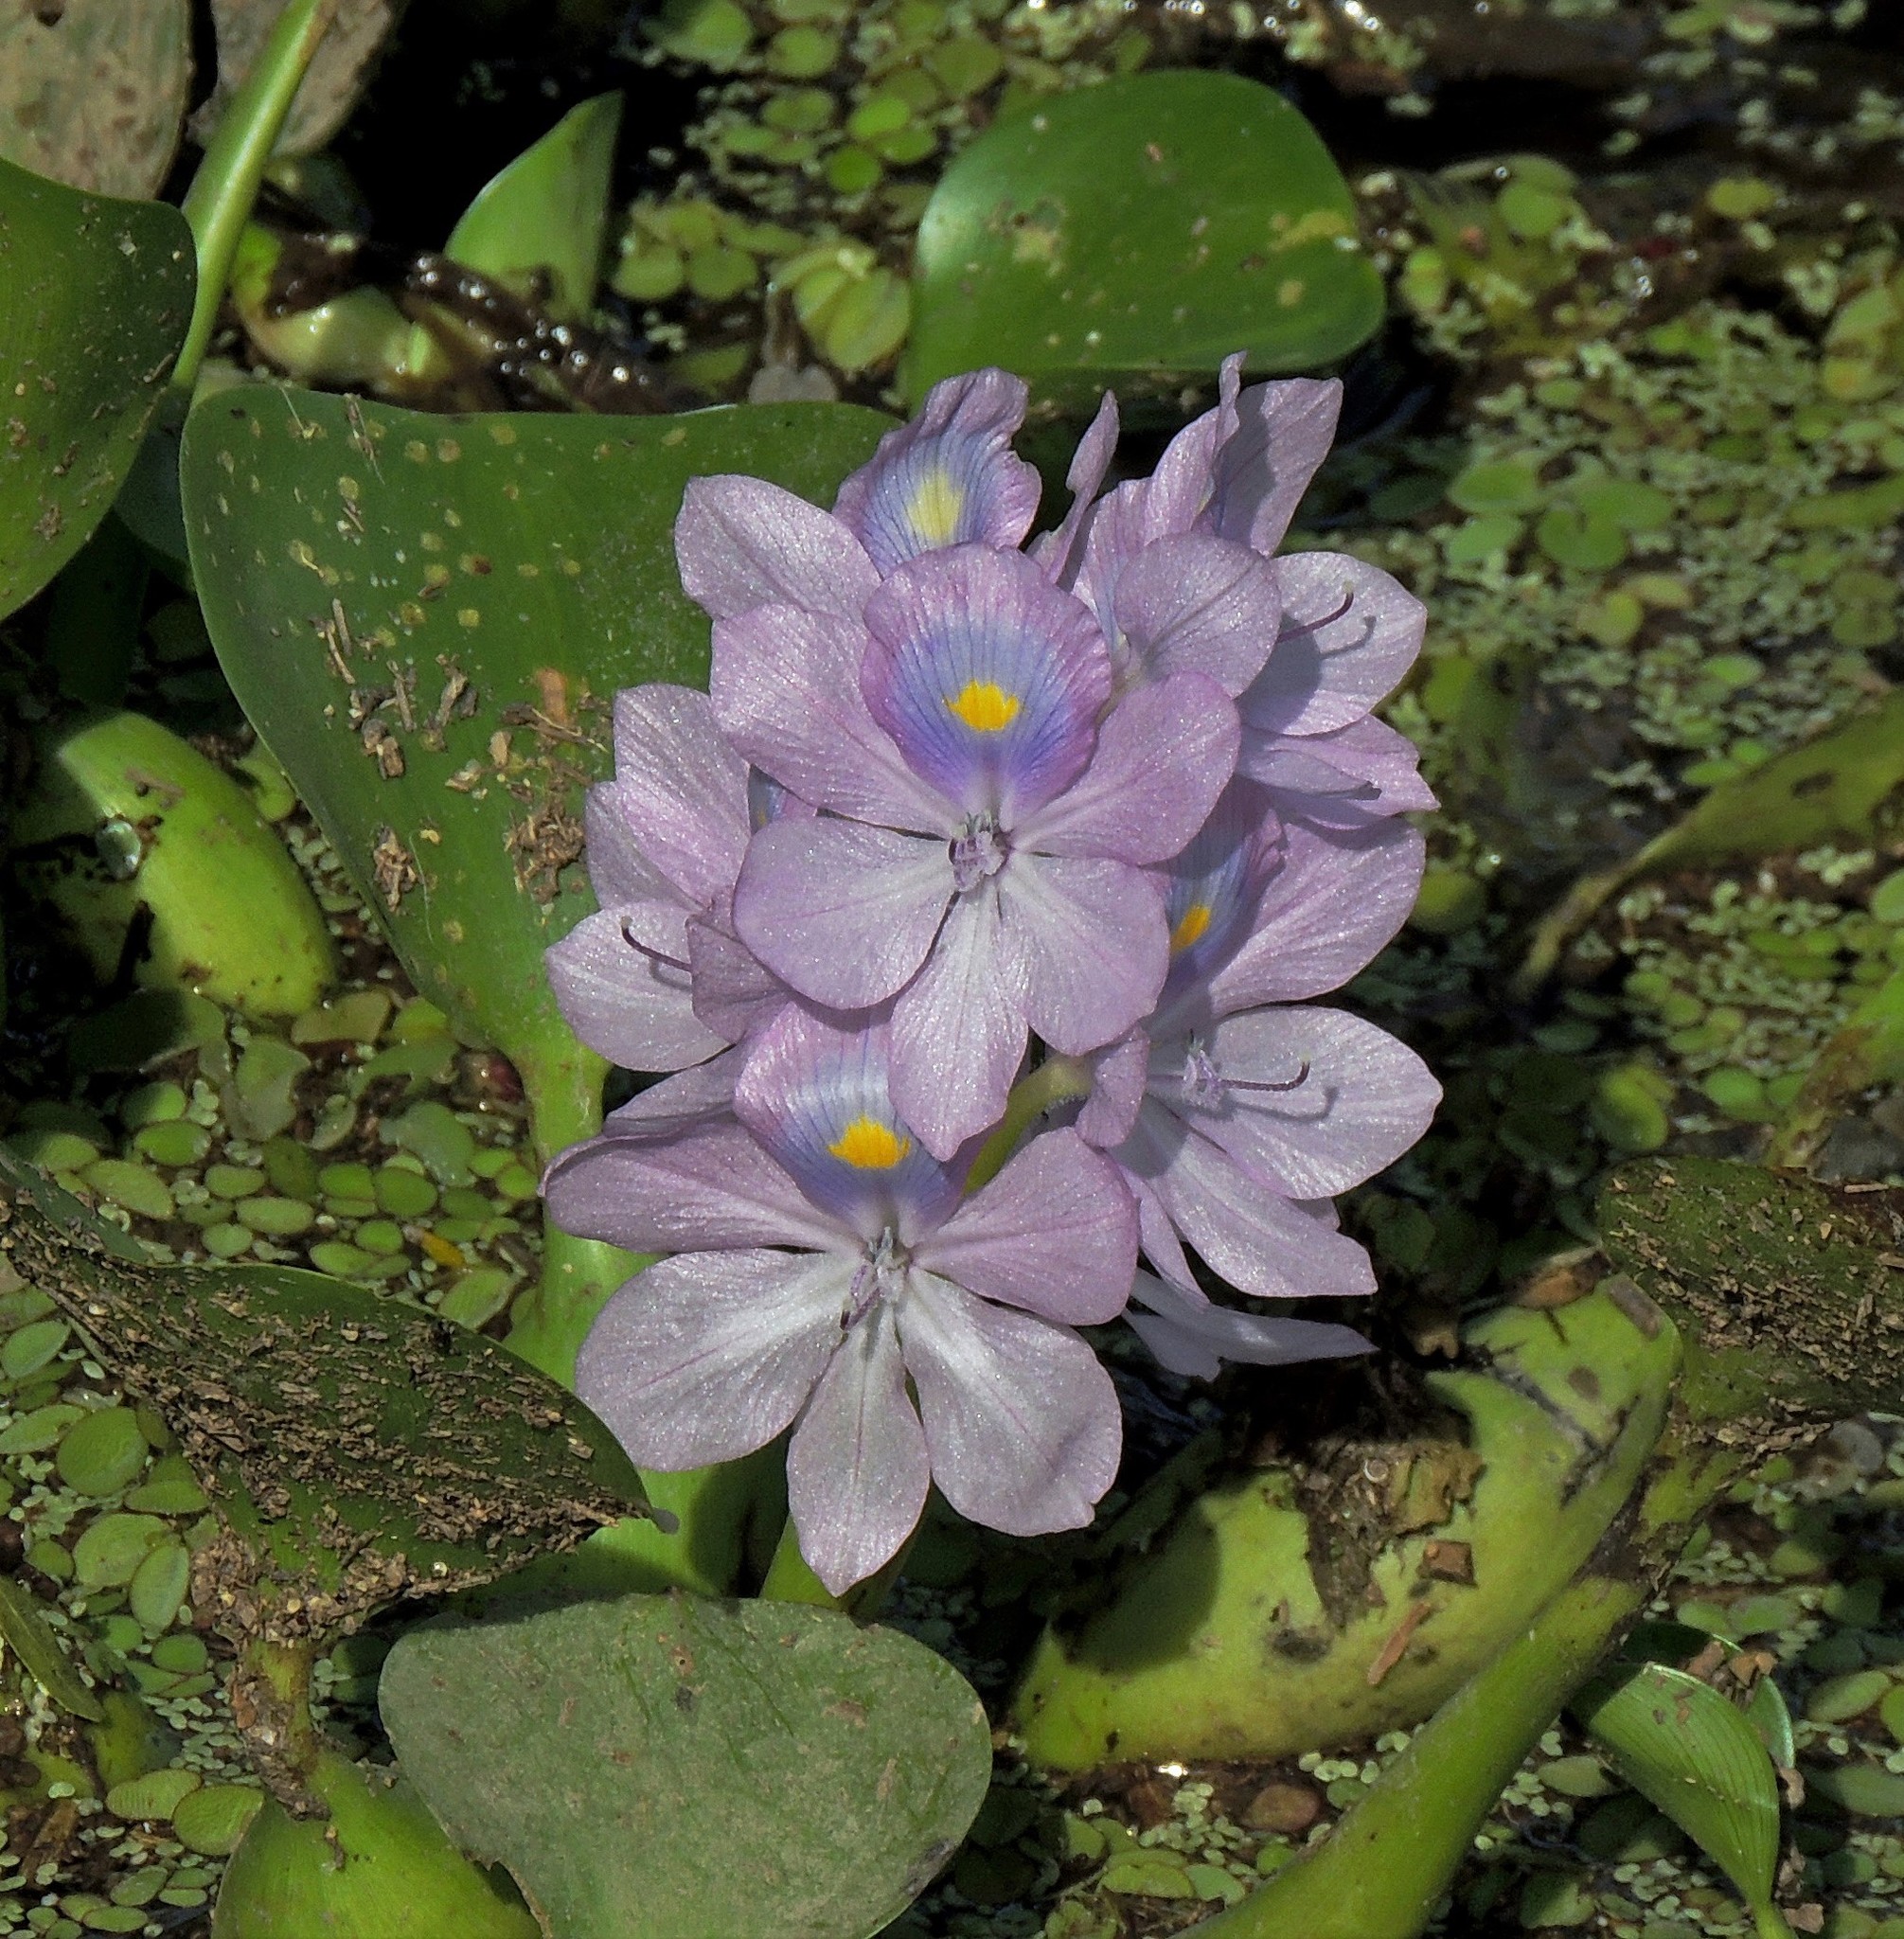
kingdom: Plantae
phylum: Tracheophyta
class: Liliopsida
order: Commelinales
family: Pontederiaceae
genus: Pontederia
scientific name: Pontederia crassipes
